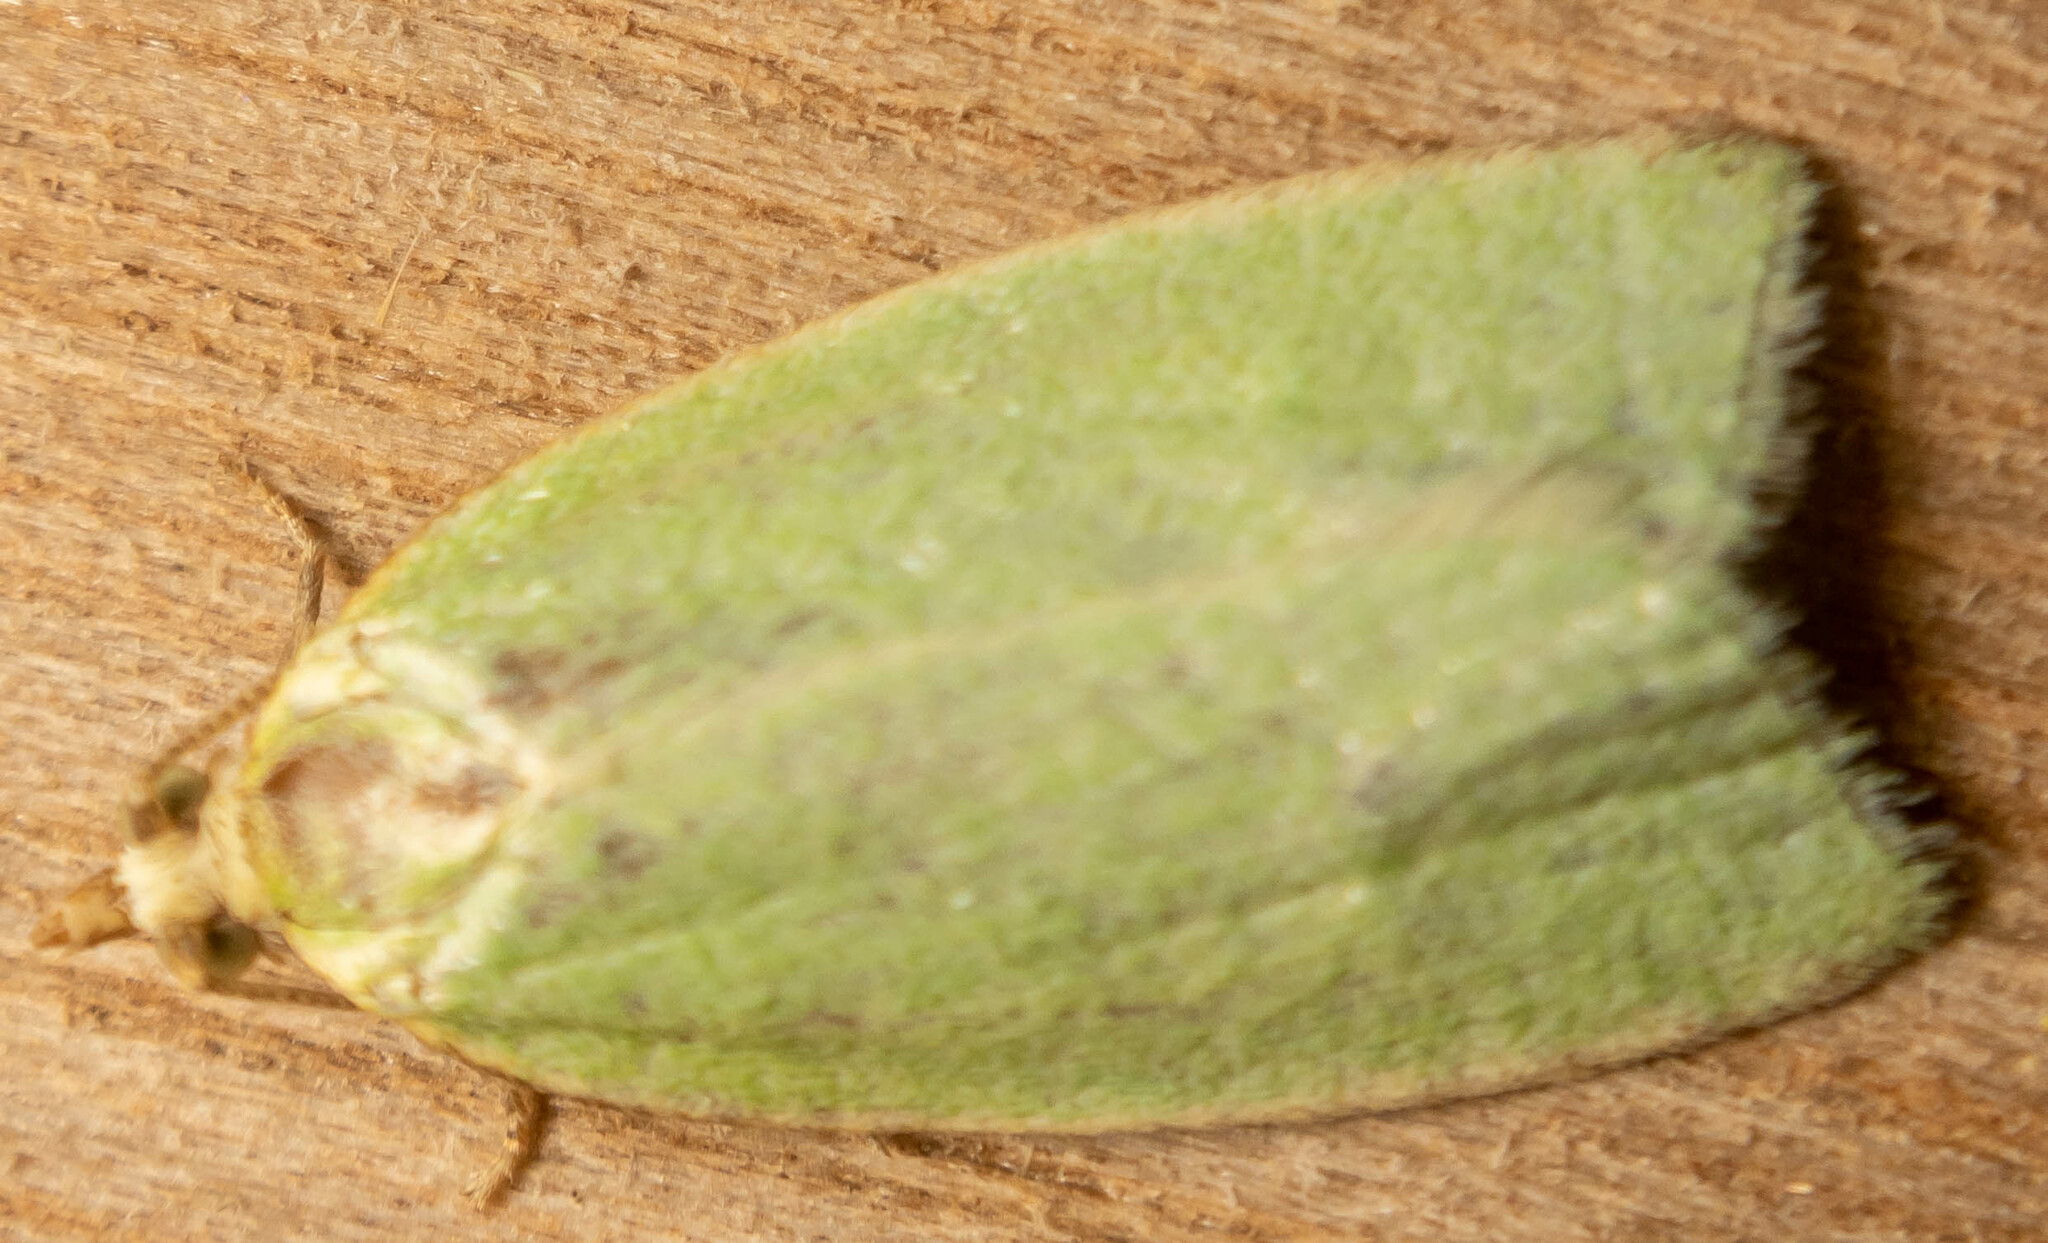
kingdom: Animalia
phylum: Arthropoda
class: Insecta
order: Lepidoptera
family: Tortricidae
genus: Tortrix
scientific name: Tortrix viridana
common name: Green oak tortrix
